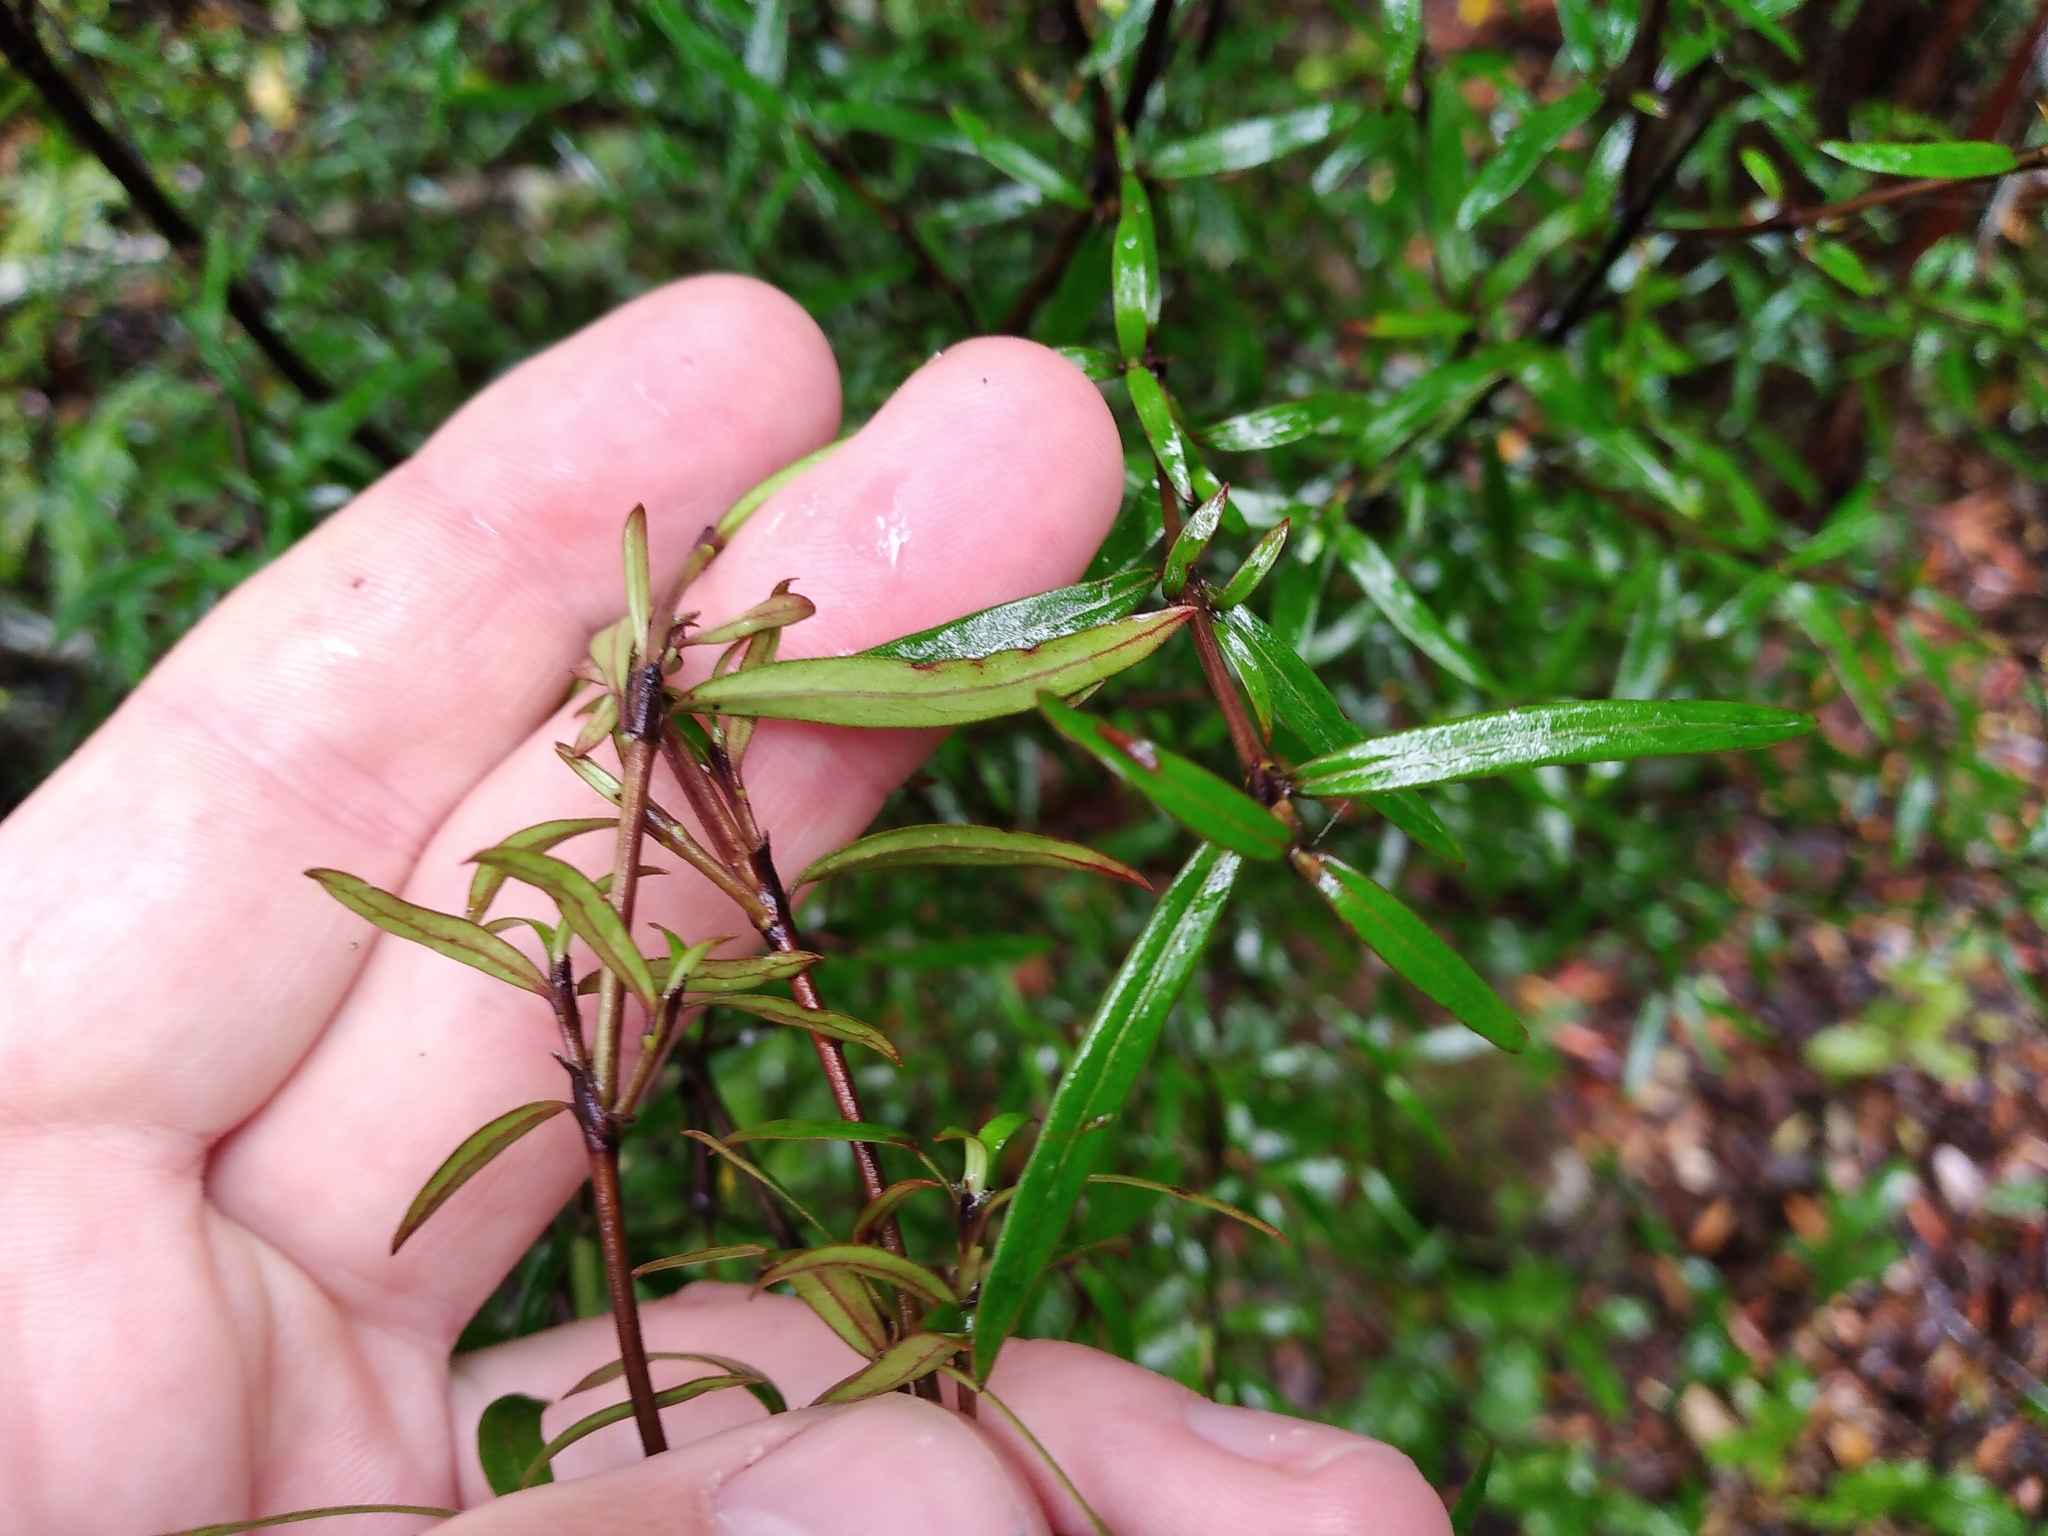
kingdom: Plantae
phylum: Tracheophyta
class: Magnoliopsida
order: Gentianales
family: Rubiaceae
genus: Coprosma
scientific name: Coprosma linariifolia
